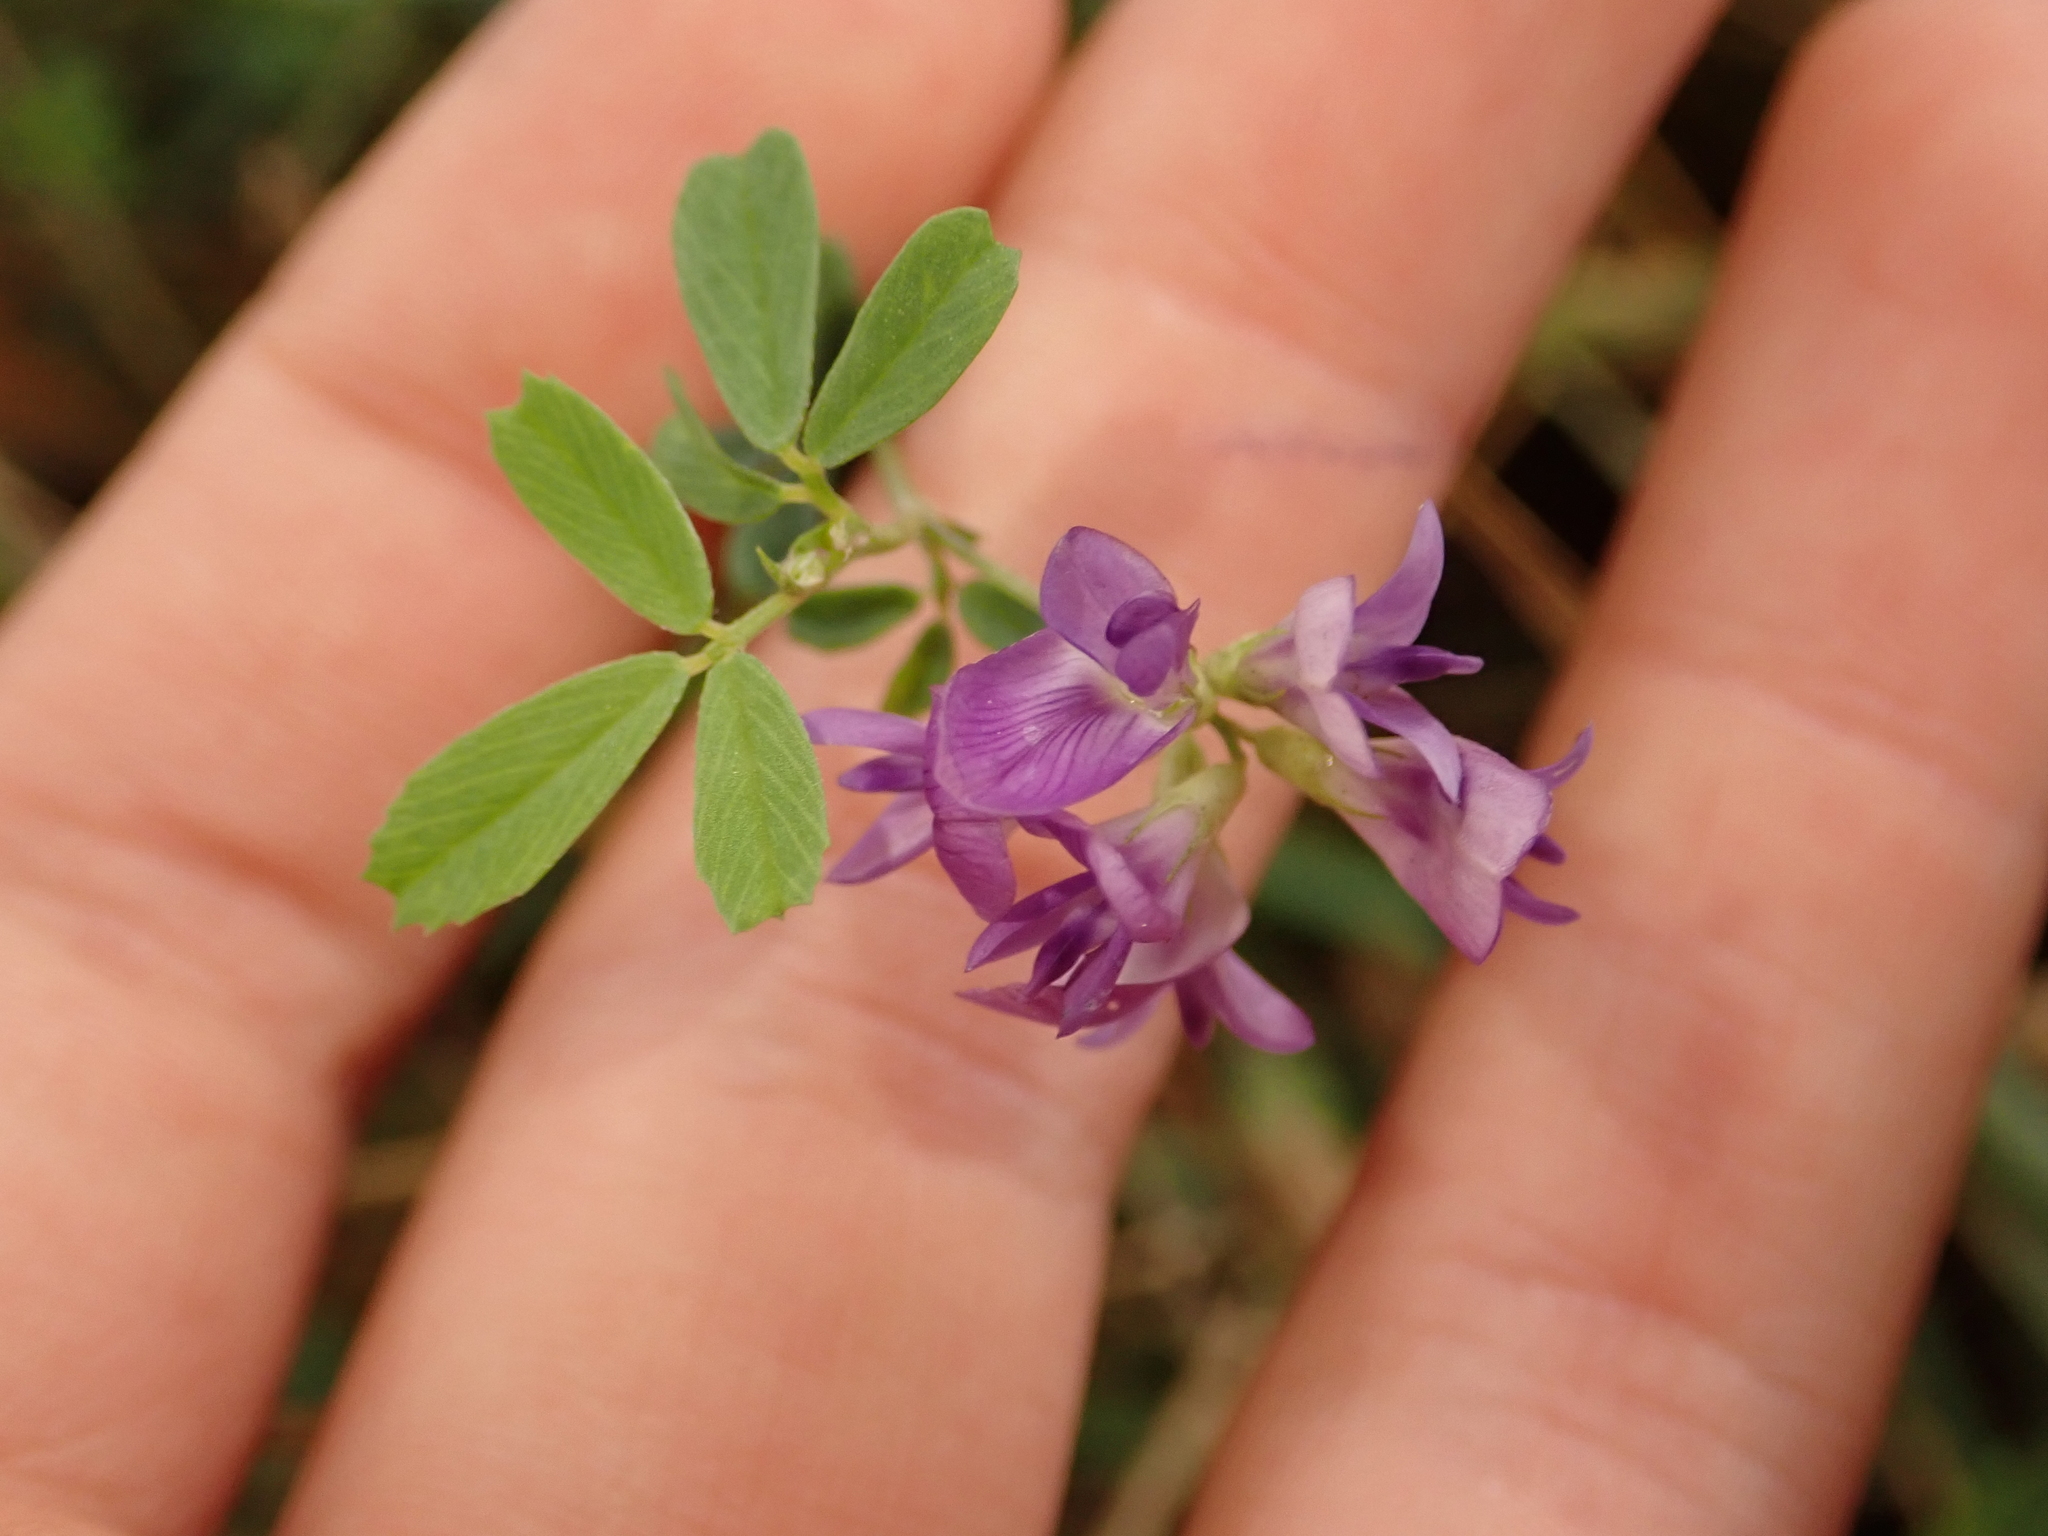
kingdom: Plantae
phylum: Tracheophyta
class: Magnoliopsida
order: Fabales
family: Fabaceae
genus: Medicago
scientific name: Medicago sativa
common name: Alfalfa
